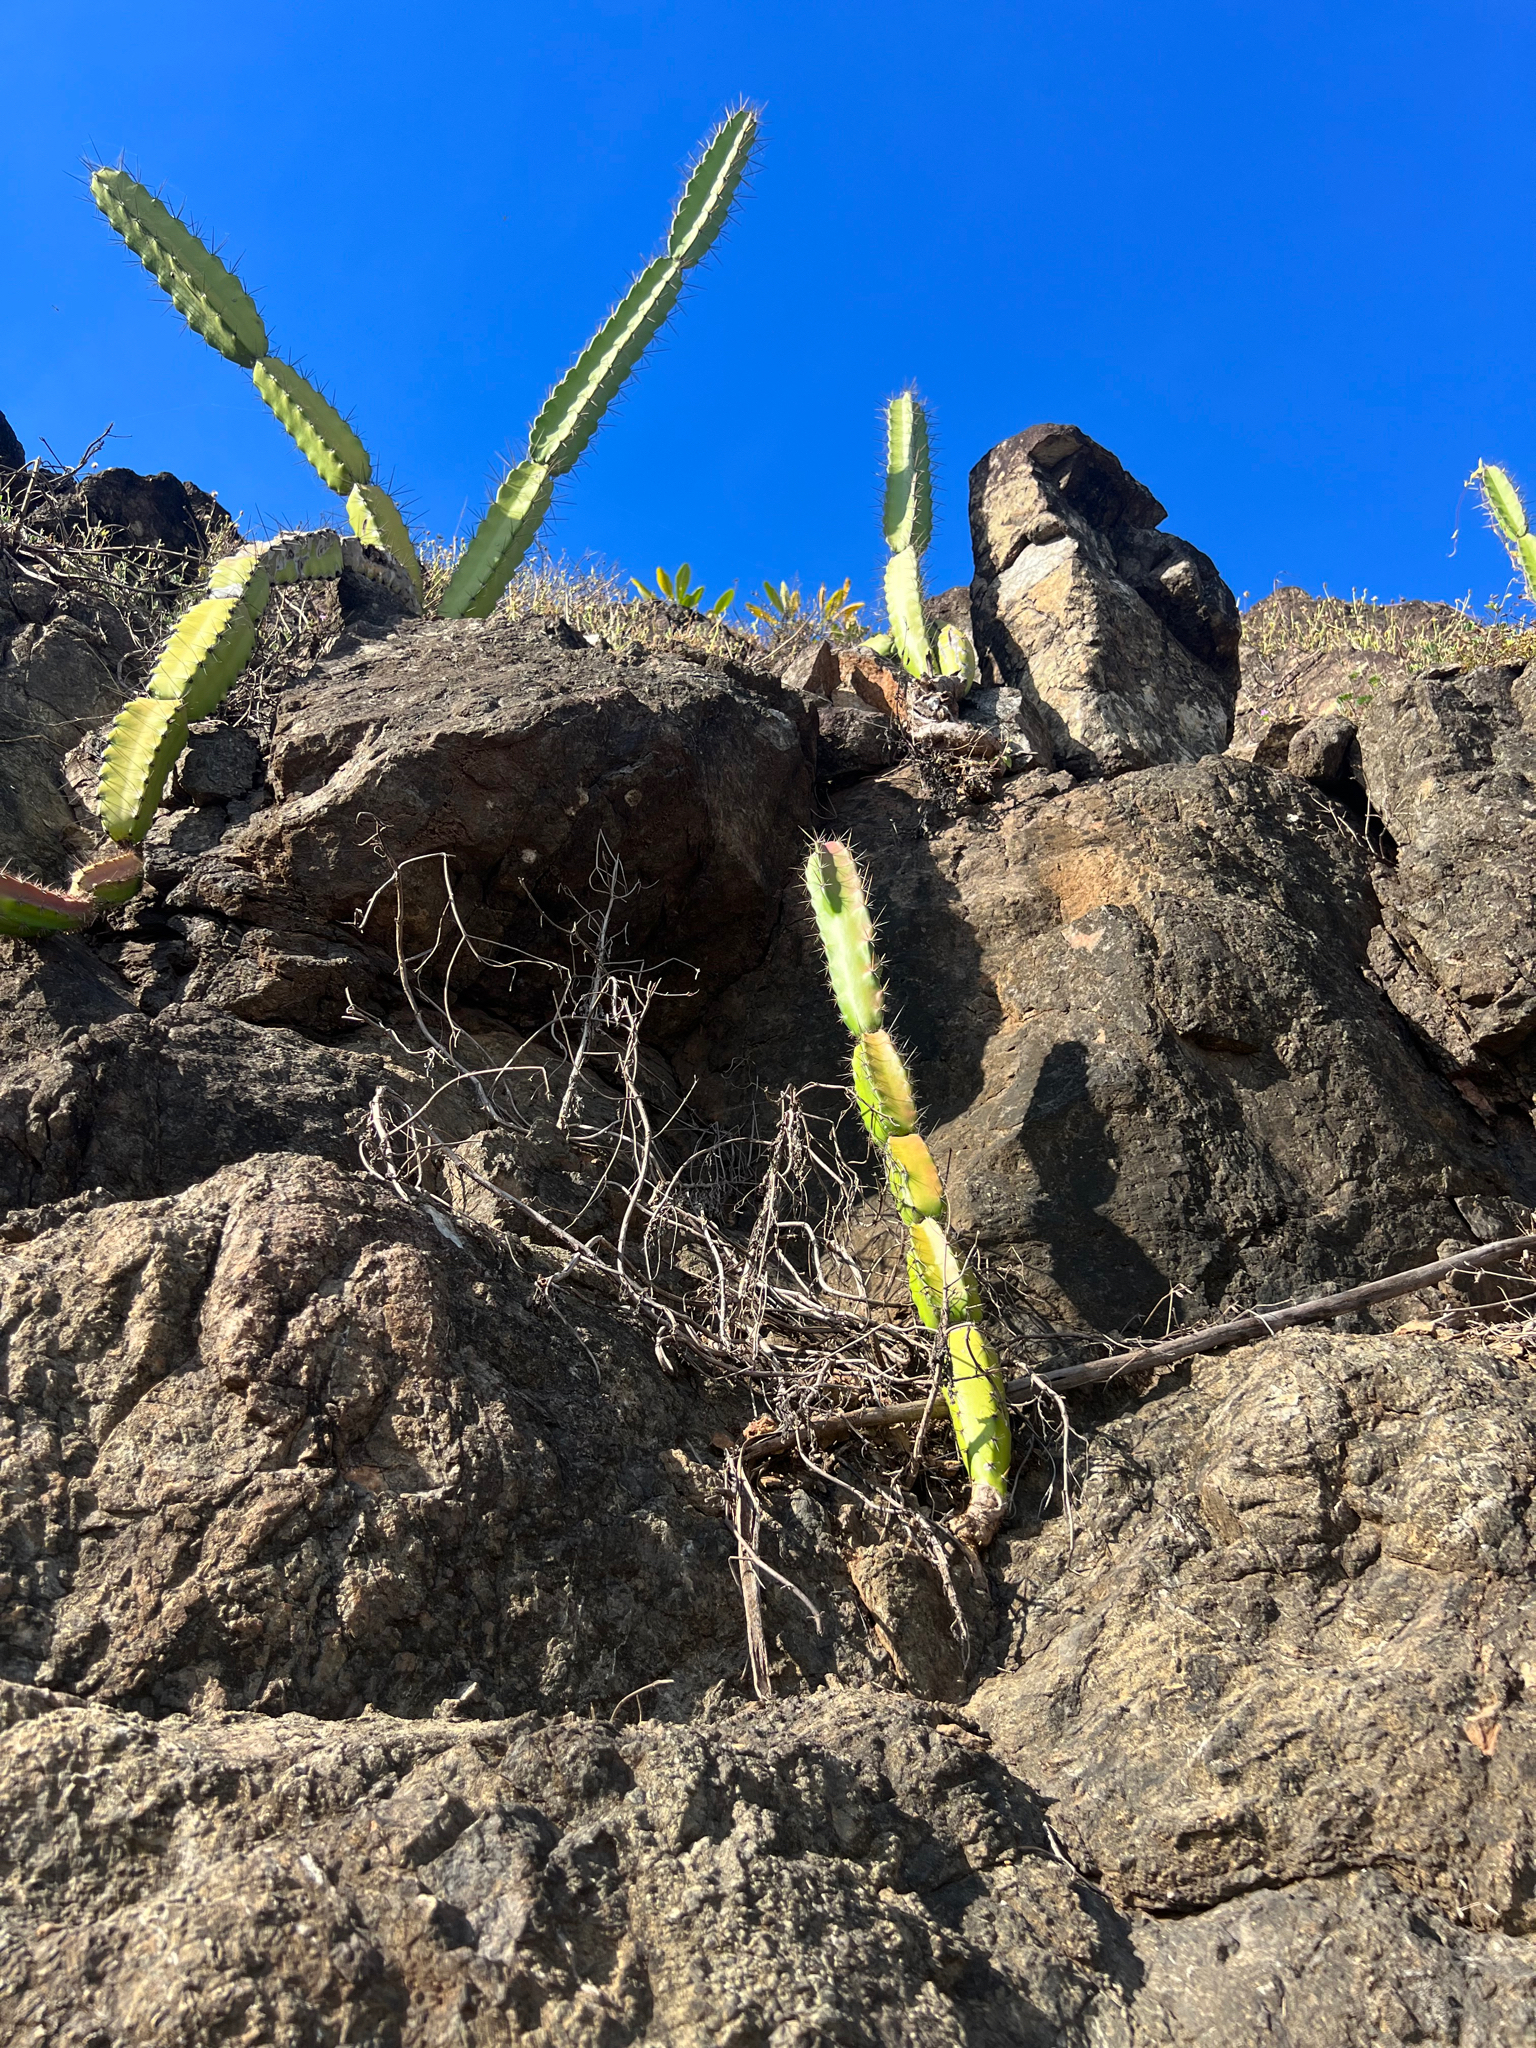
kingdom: Plantae
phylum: Tracheophyta
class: Magnoliopsida
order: Caryophyllales
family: Cactaceae
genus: Acanthocereus
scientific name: Acanthocereus tetragonus
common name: Triangle cactus
